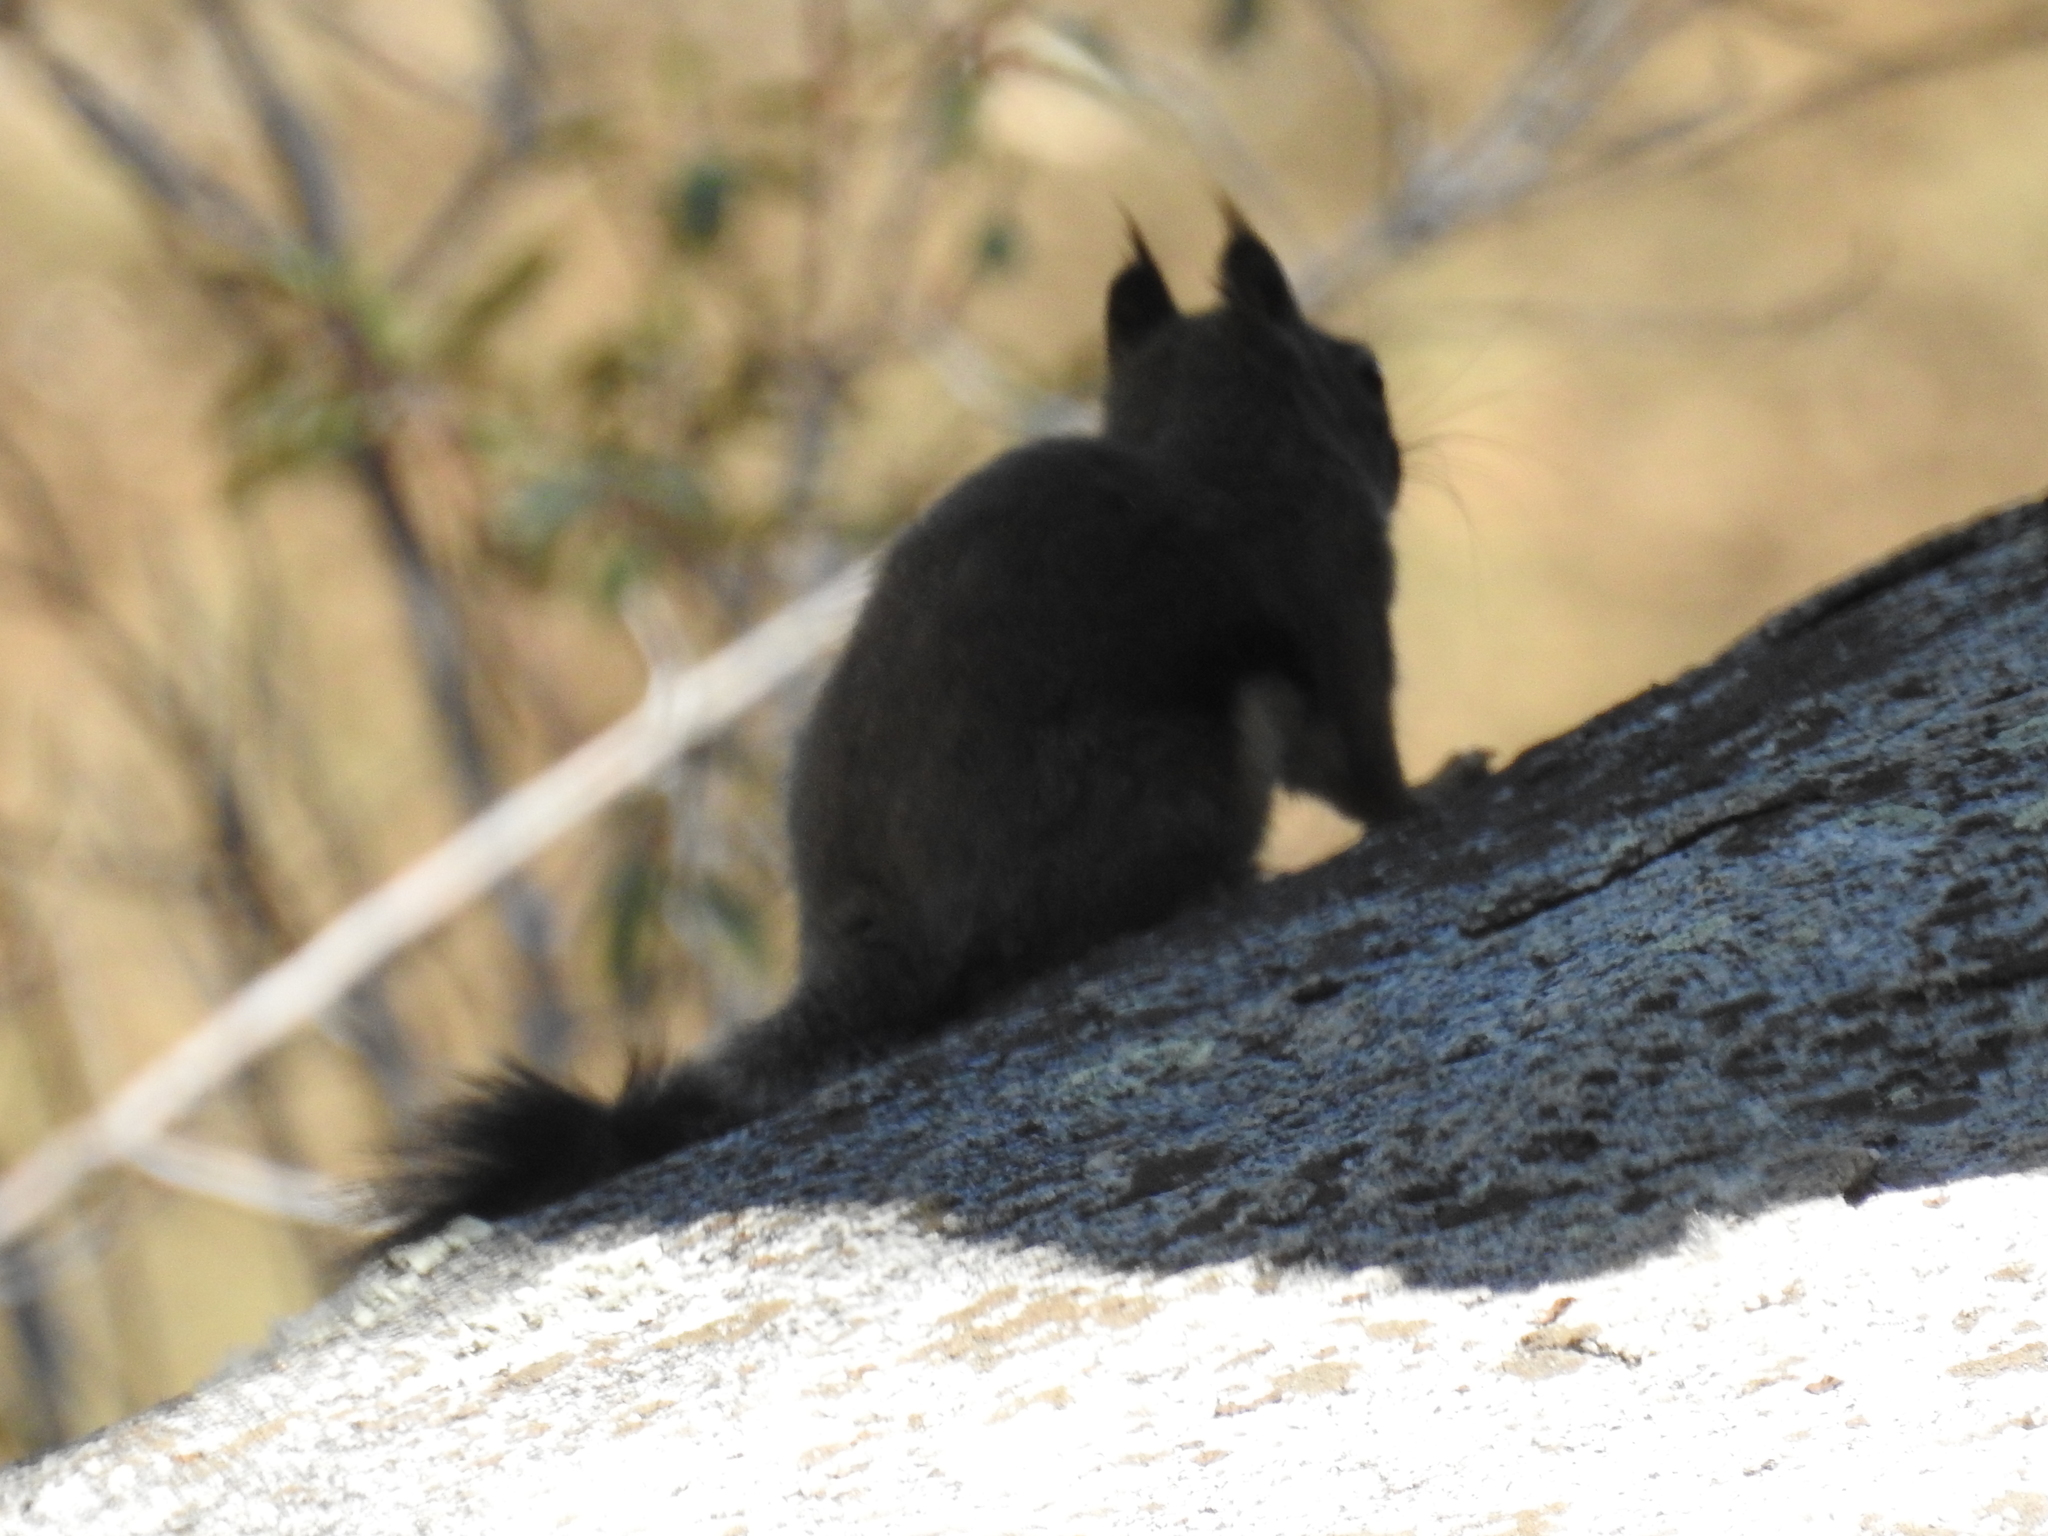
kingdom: Animalia
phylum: Chordata
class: Mammalia
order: Rodentia
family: Sciuridae
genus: Tamiasciurus
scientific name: Tamiasciurus douglasii
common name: Douglas's squirrel
